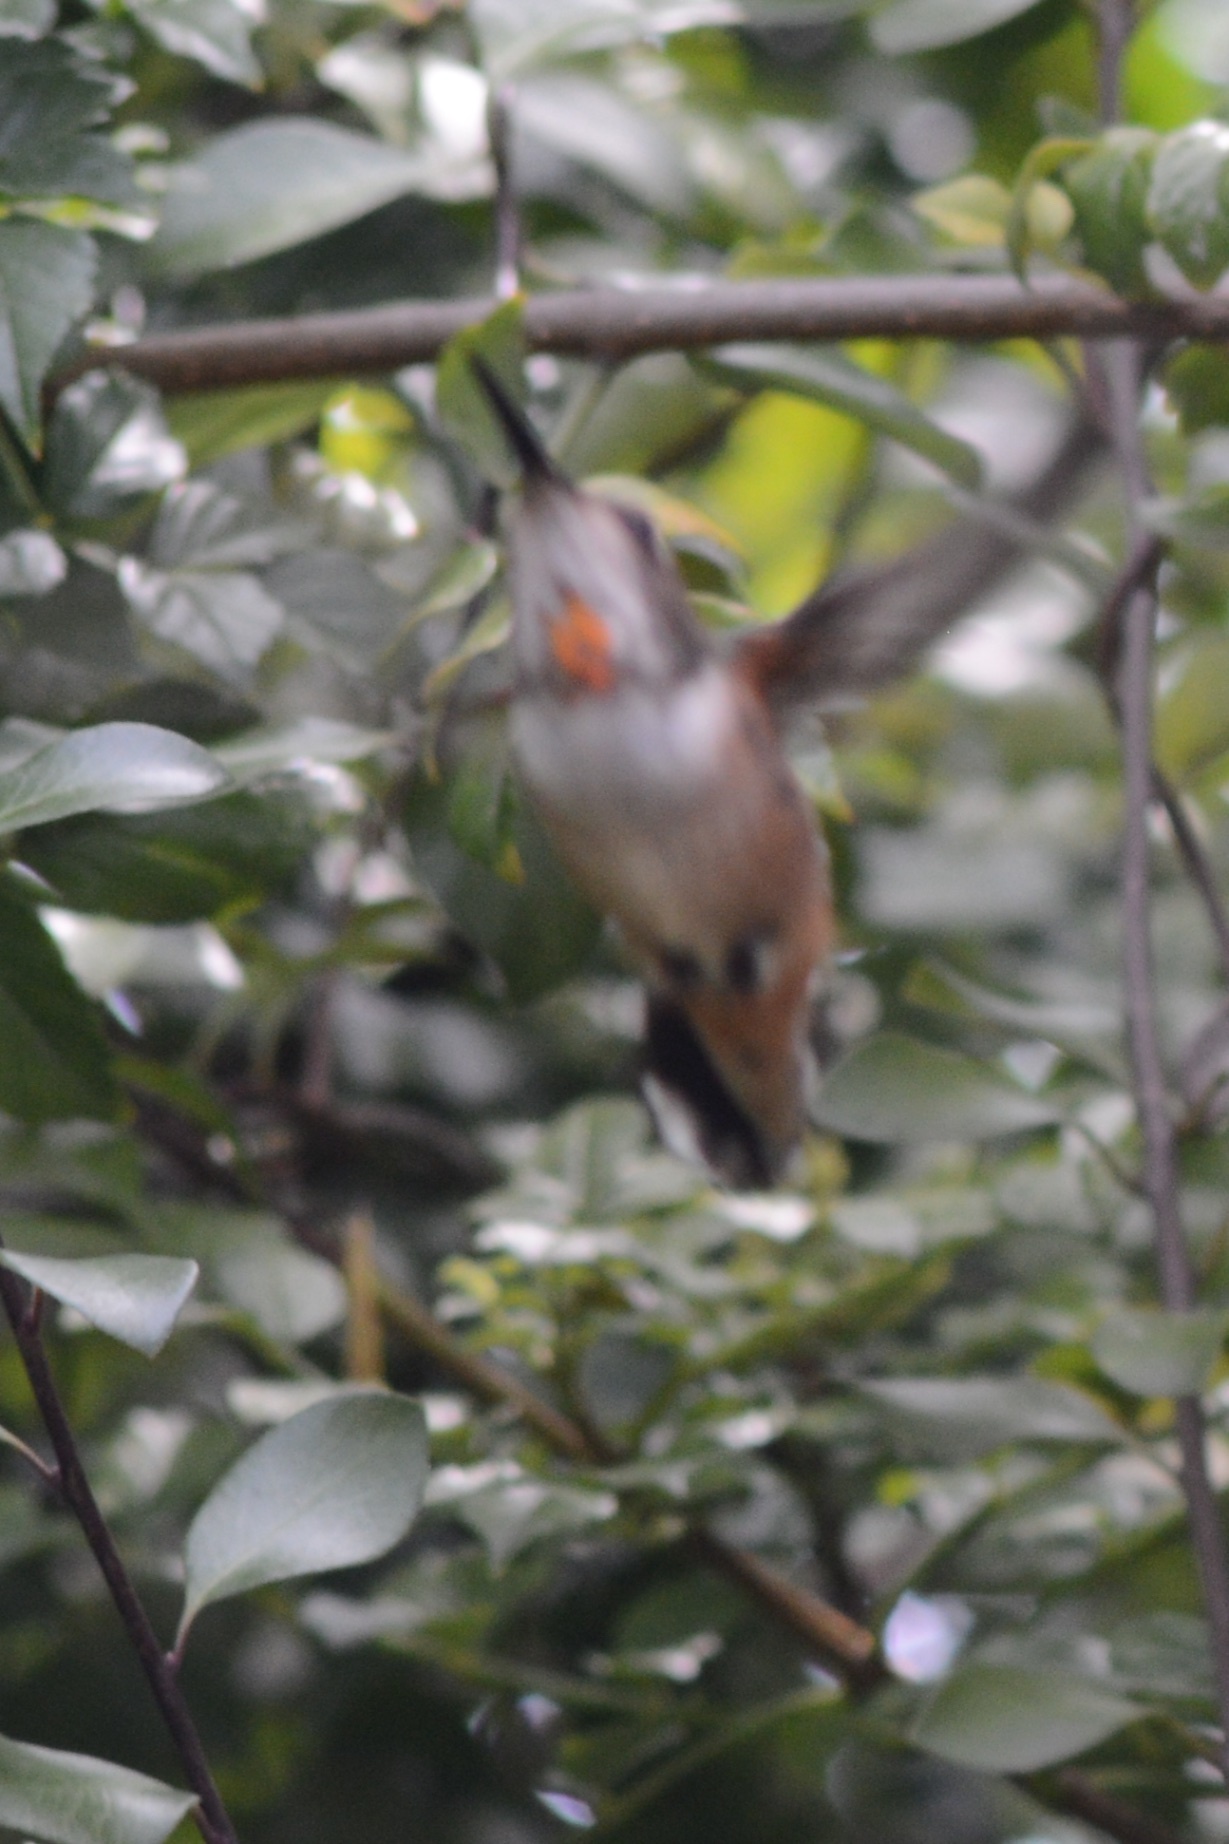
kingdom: Animalia
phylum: Chordata
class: Aves
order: Apodiformes
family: Trochilidae
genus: Selasphorus
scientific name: Selasphorus sasin
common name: Allen's hummingbird
